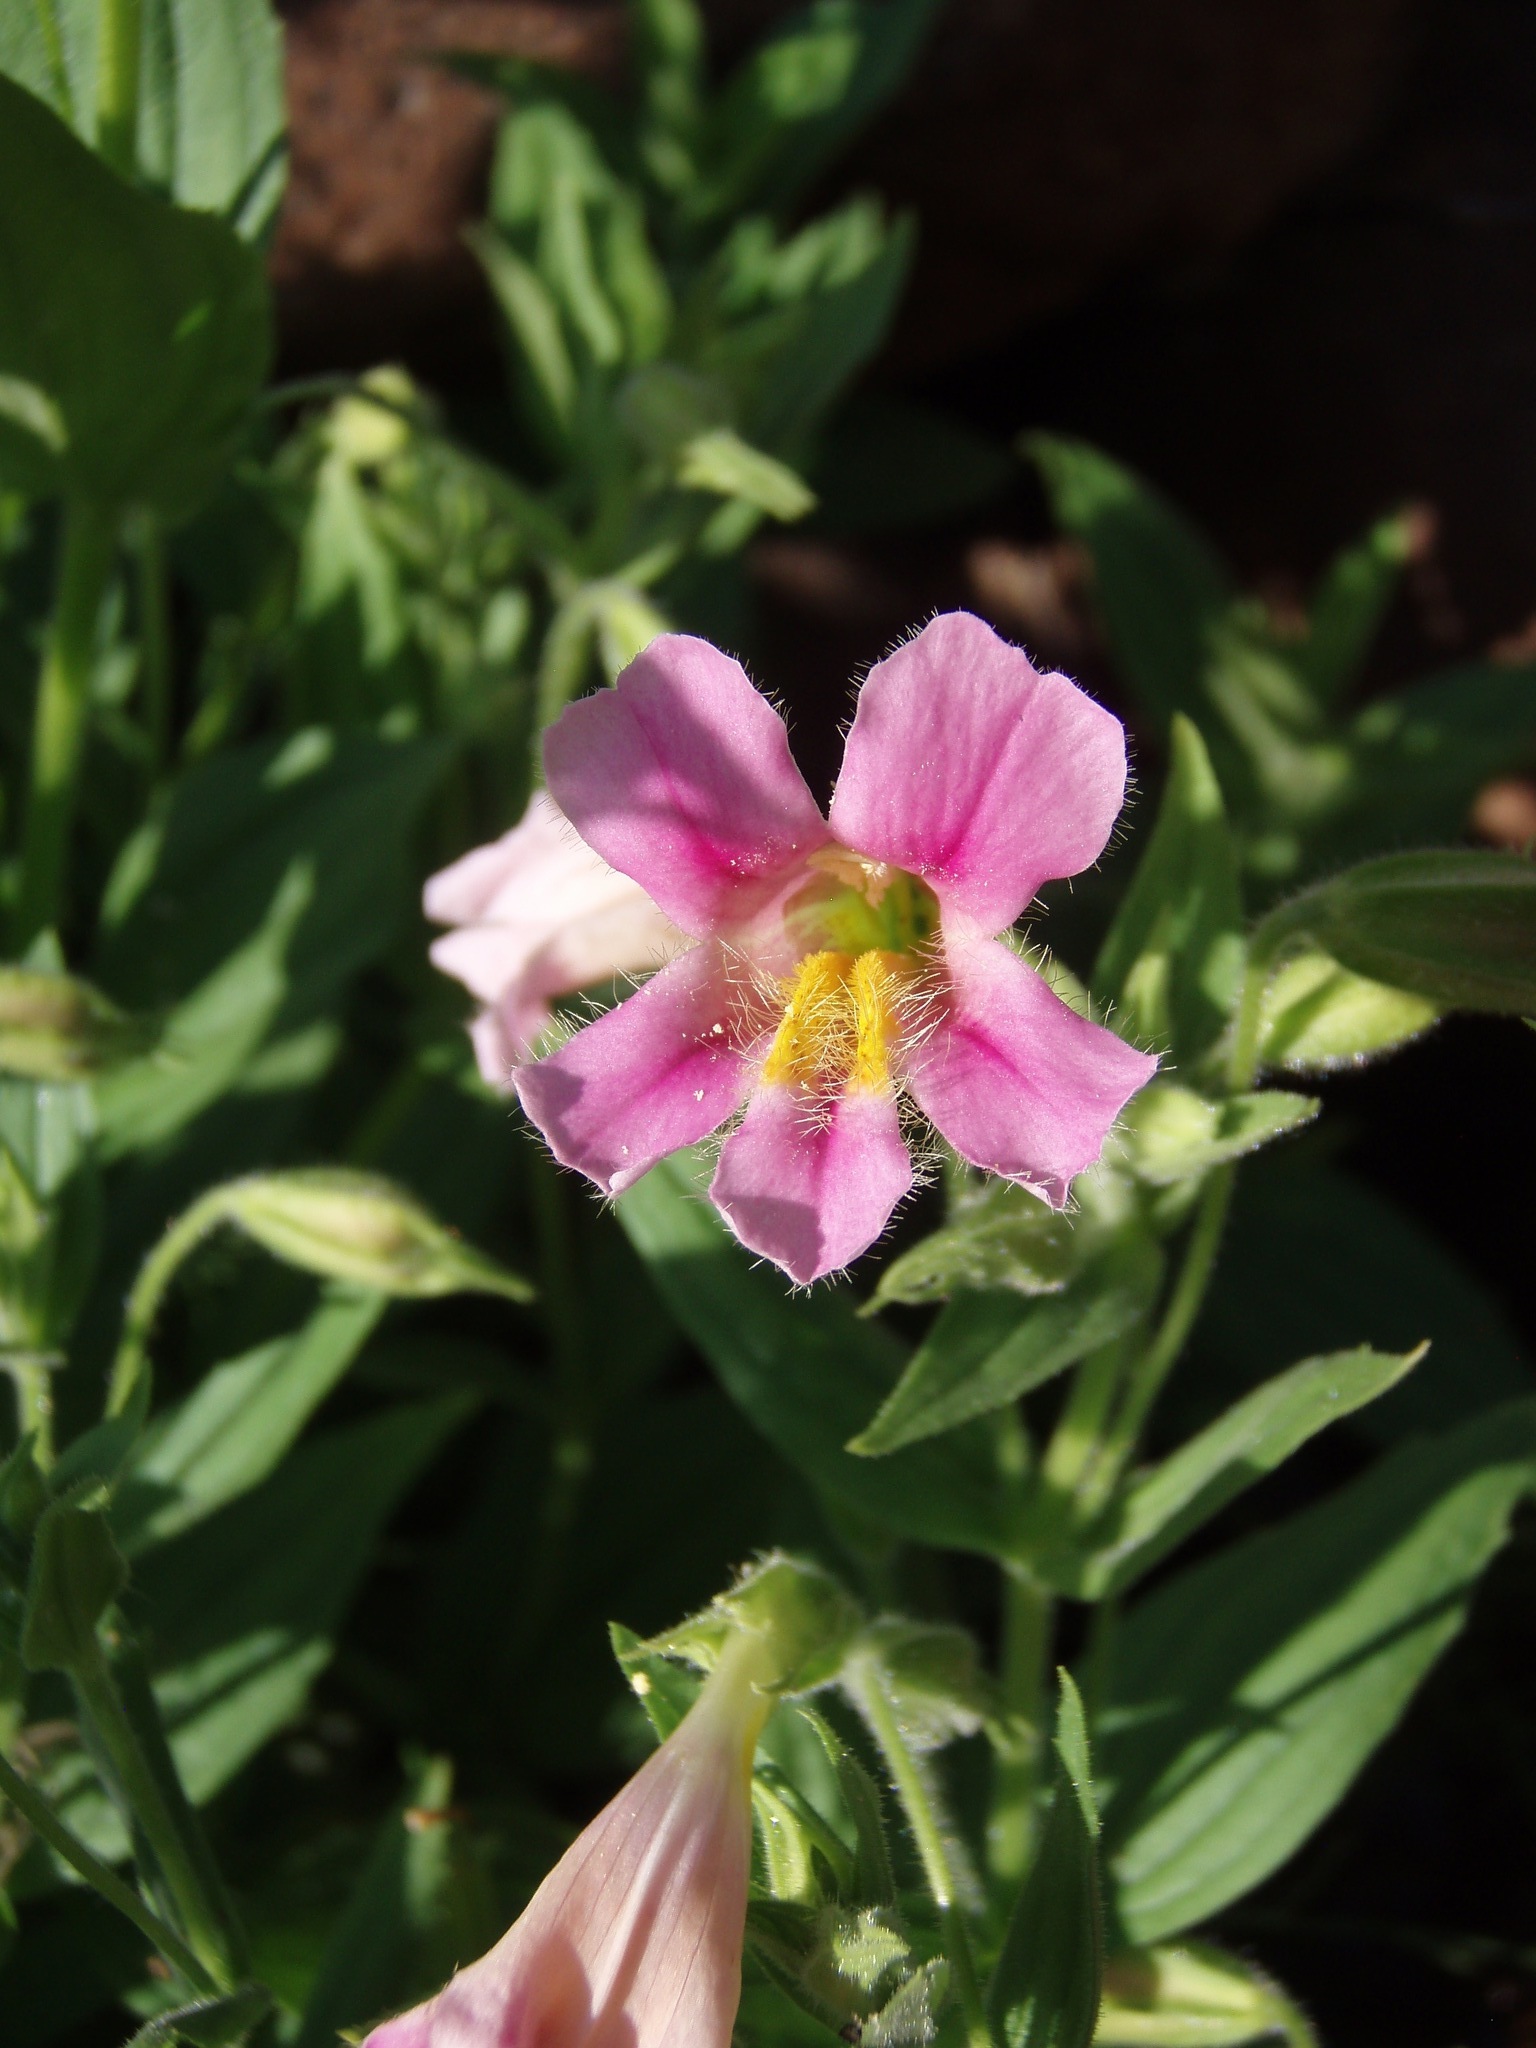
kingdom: Plantae
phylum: Tracheophyta
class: Magnoliopsida
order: Lamiales
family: Phrymaceae
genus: Erythranthe
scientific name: Erythranthe erubescens
